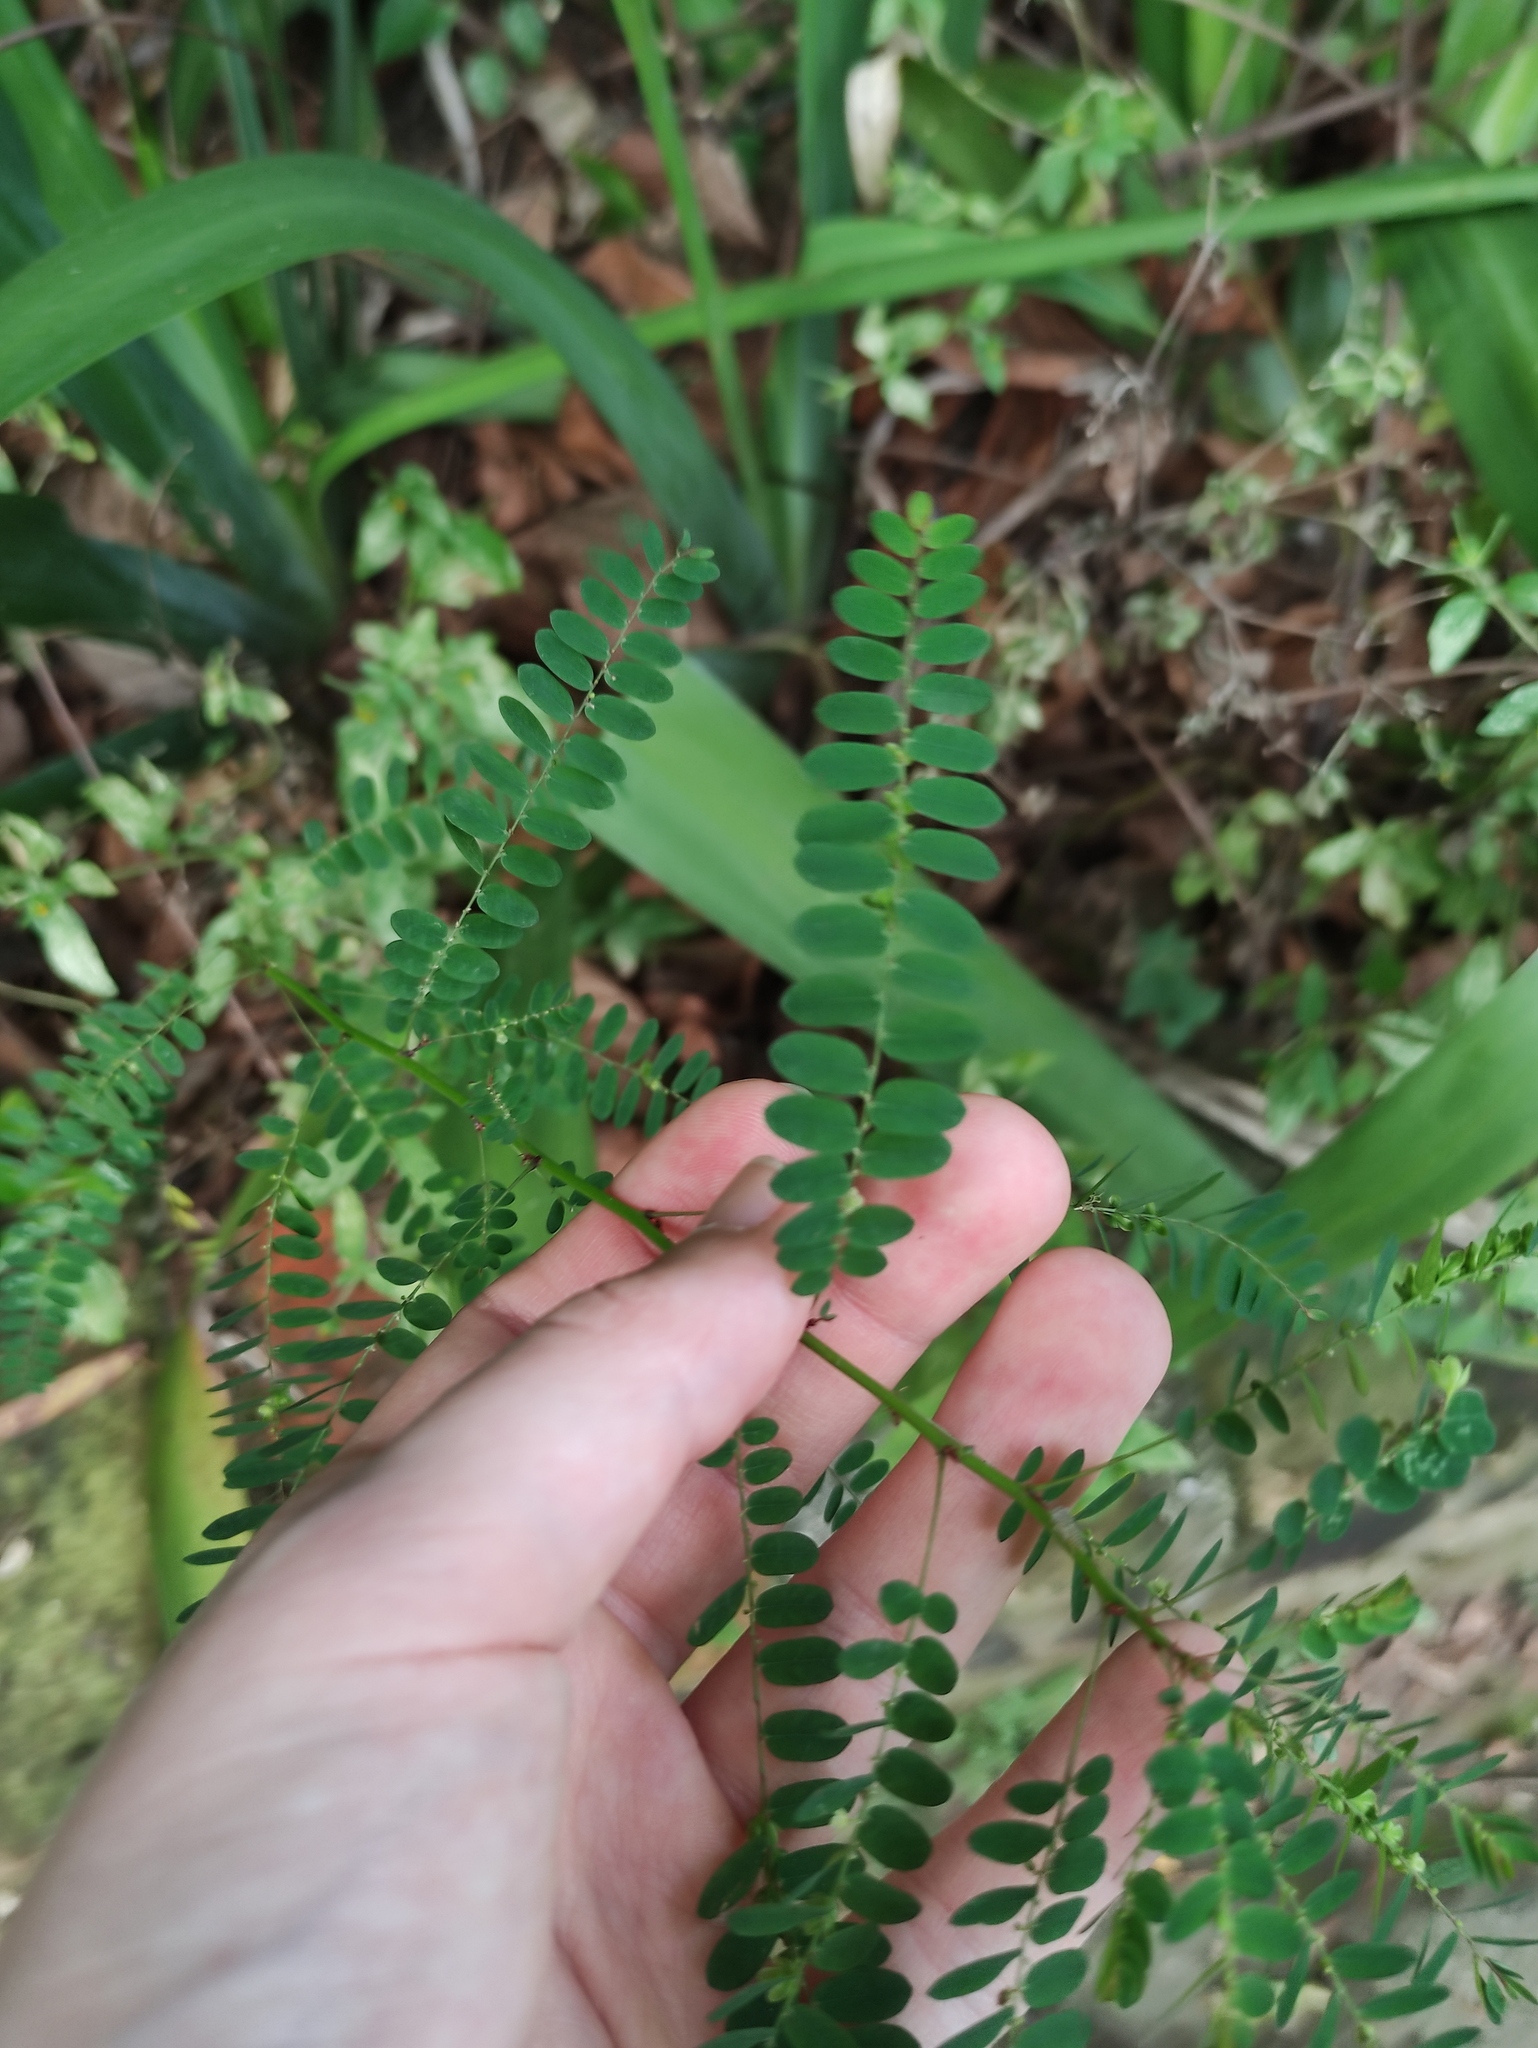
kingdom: Plantae
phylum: Tracheophyta
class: Magnoliopsida
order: Malpighiales
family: Phyllanthaceae
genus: Phyllanthus
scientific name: Phyllanthus niruri
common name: Niruri
